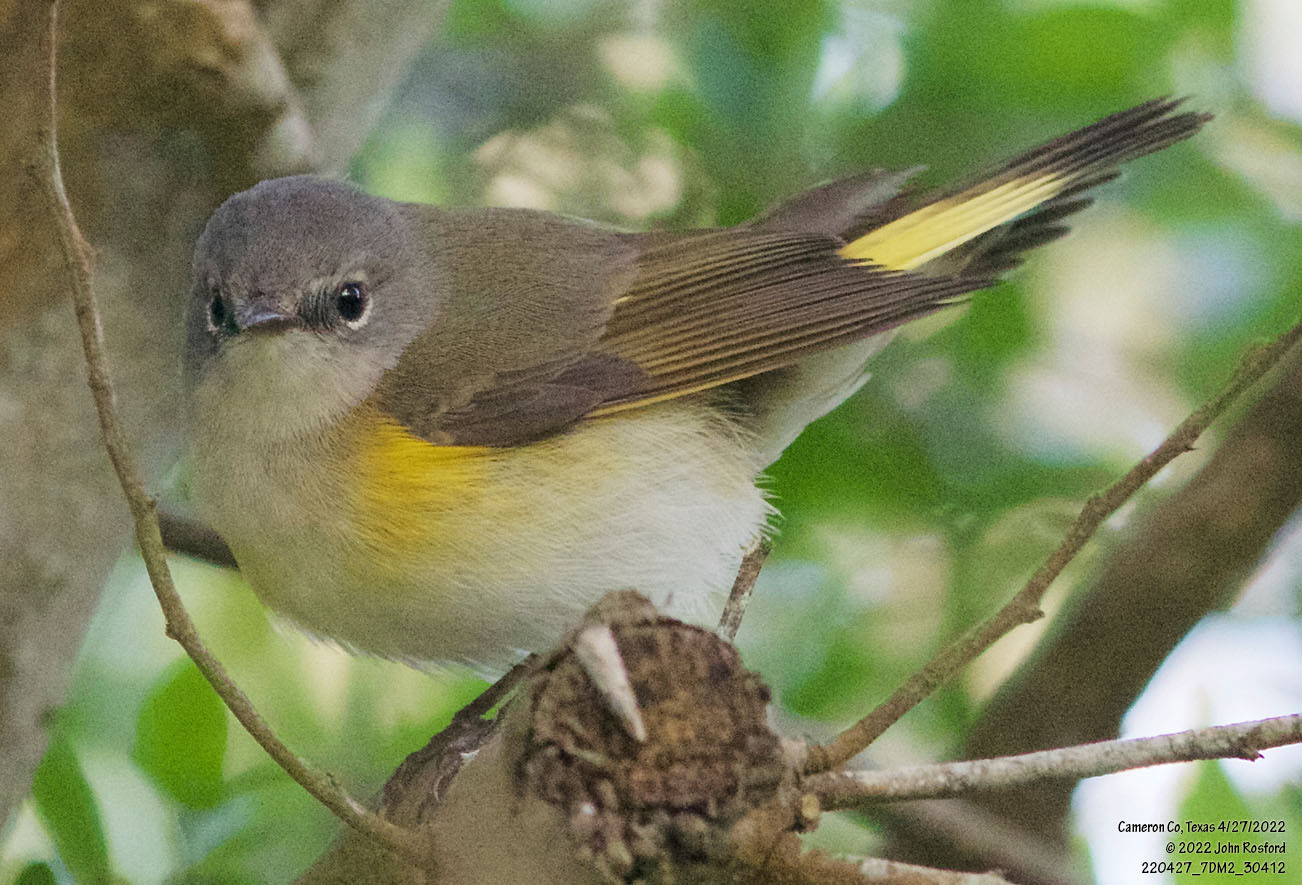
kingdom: Animalia
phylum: Chordata
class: Aves
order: Passeriformes
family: Parulidae
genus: Setophaga
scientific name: Setophaga ruticilla
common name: American redstart
